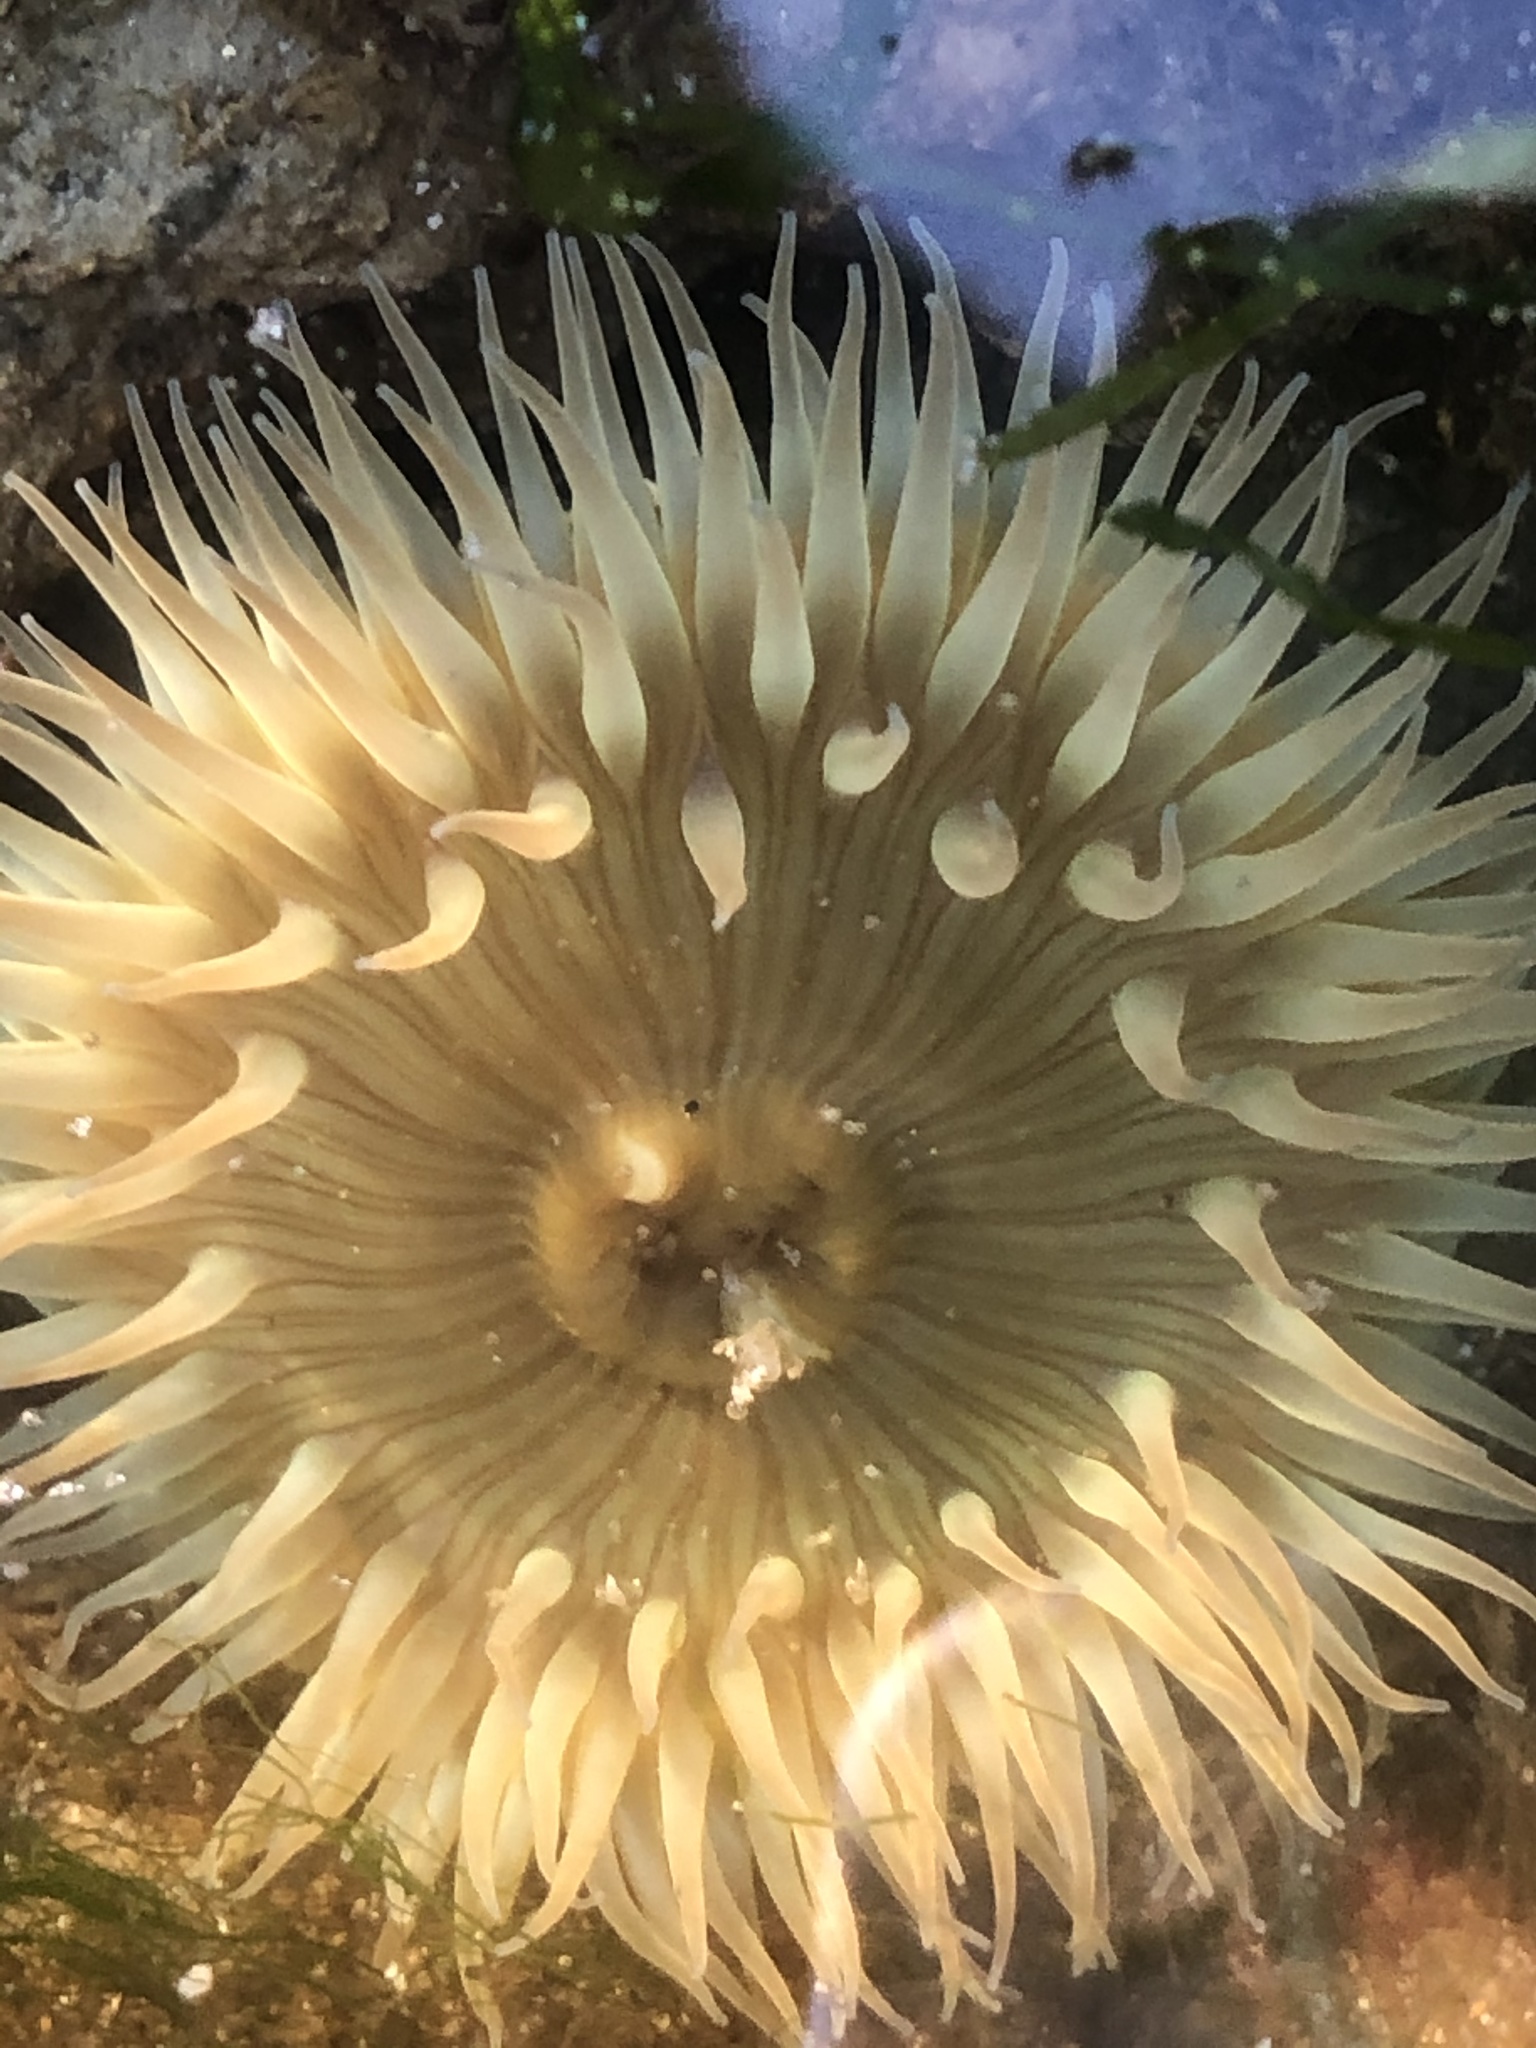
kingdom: Animalia
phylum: Cnidaria
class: Anthozoa
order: Actiniaria
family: Actiniidae
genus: Anthopleura
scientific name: Anthopleura sola
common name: Sun anemone
